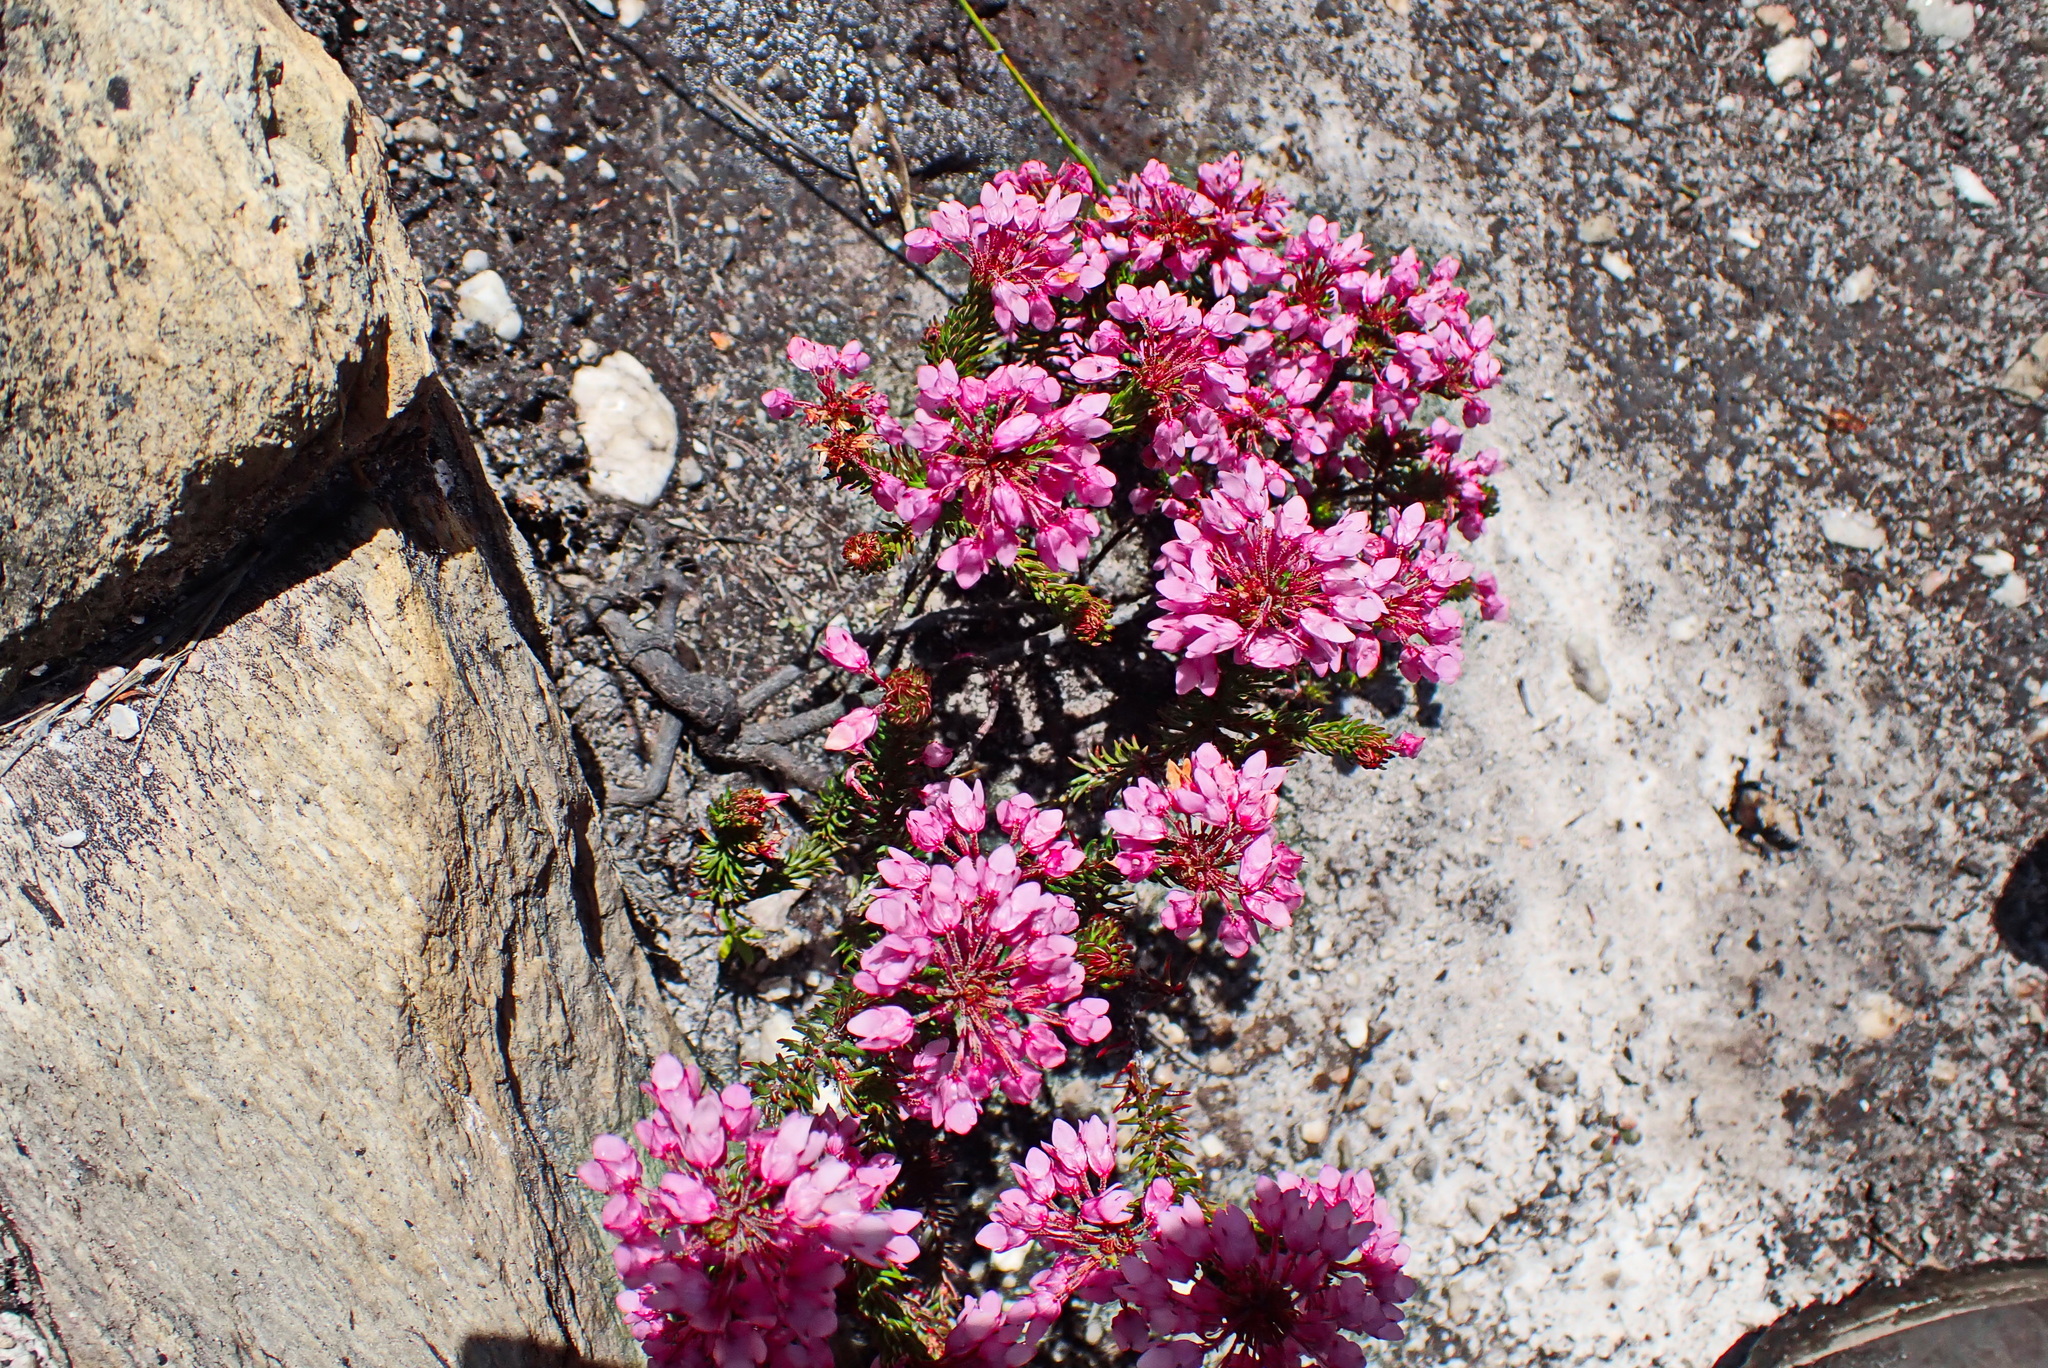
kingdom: Plantae
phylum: Tracheophyta
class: Magnoliopsida
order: Ericales
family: Ericaceae
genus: Erica
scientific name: Erica cubica
